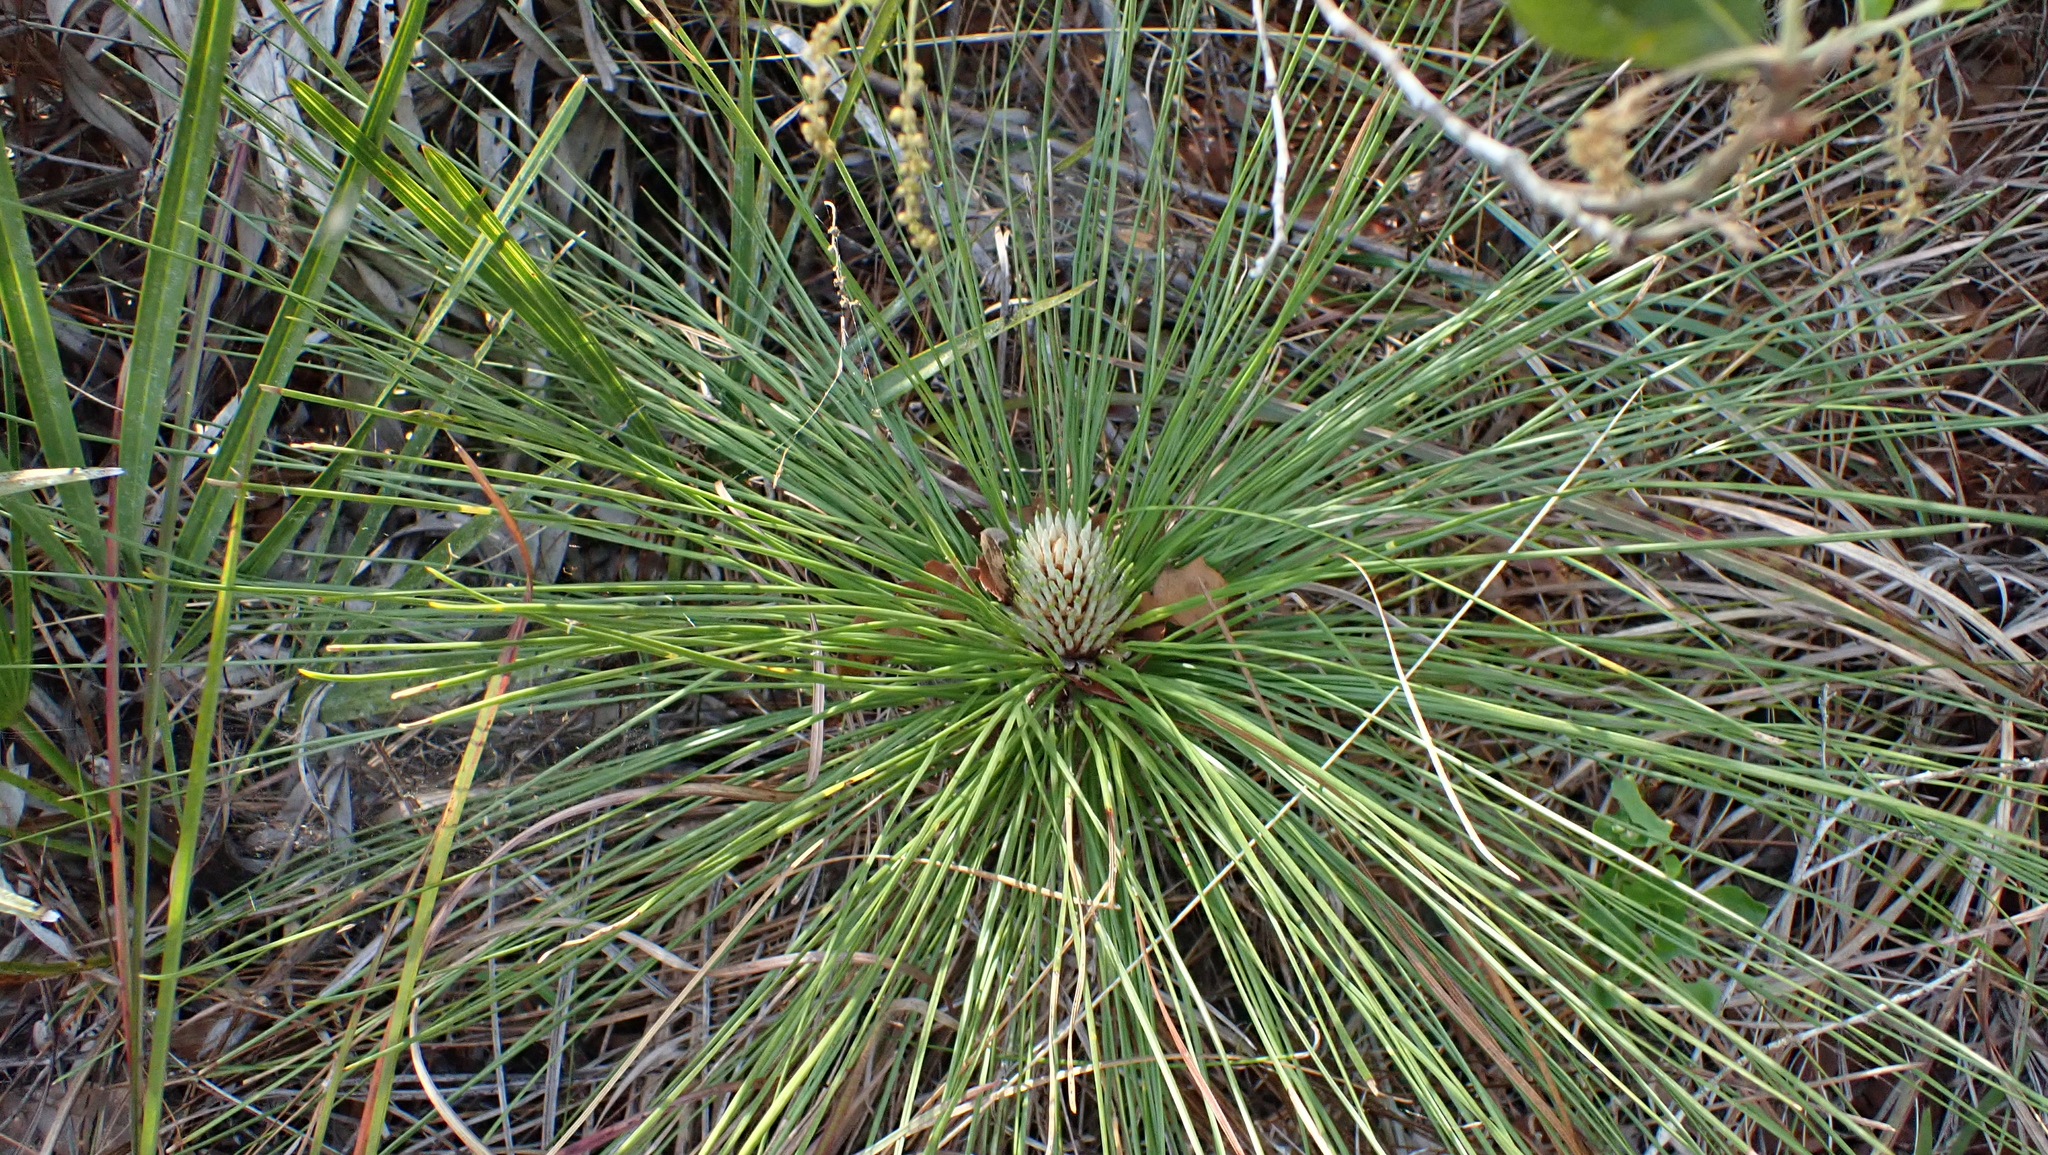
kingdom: Plantae
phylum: Tracheophyta
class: Pinopsida
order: Pinales
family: Pinaceae
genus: Pinus
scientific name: Pinus palustris
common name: Longleaf pine
